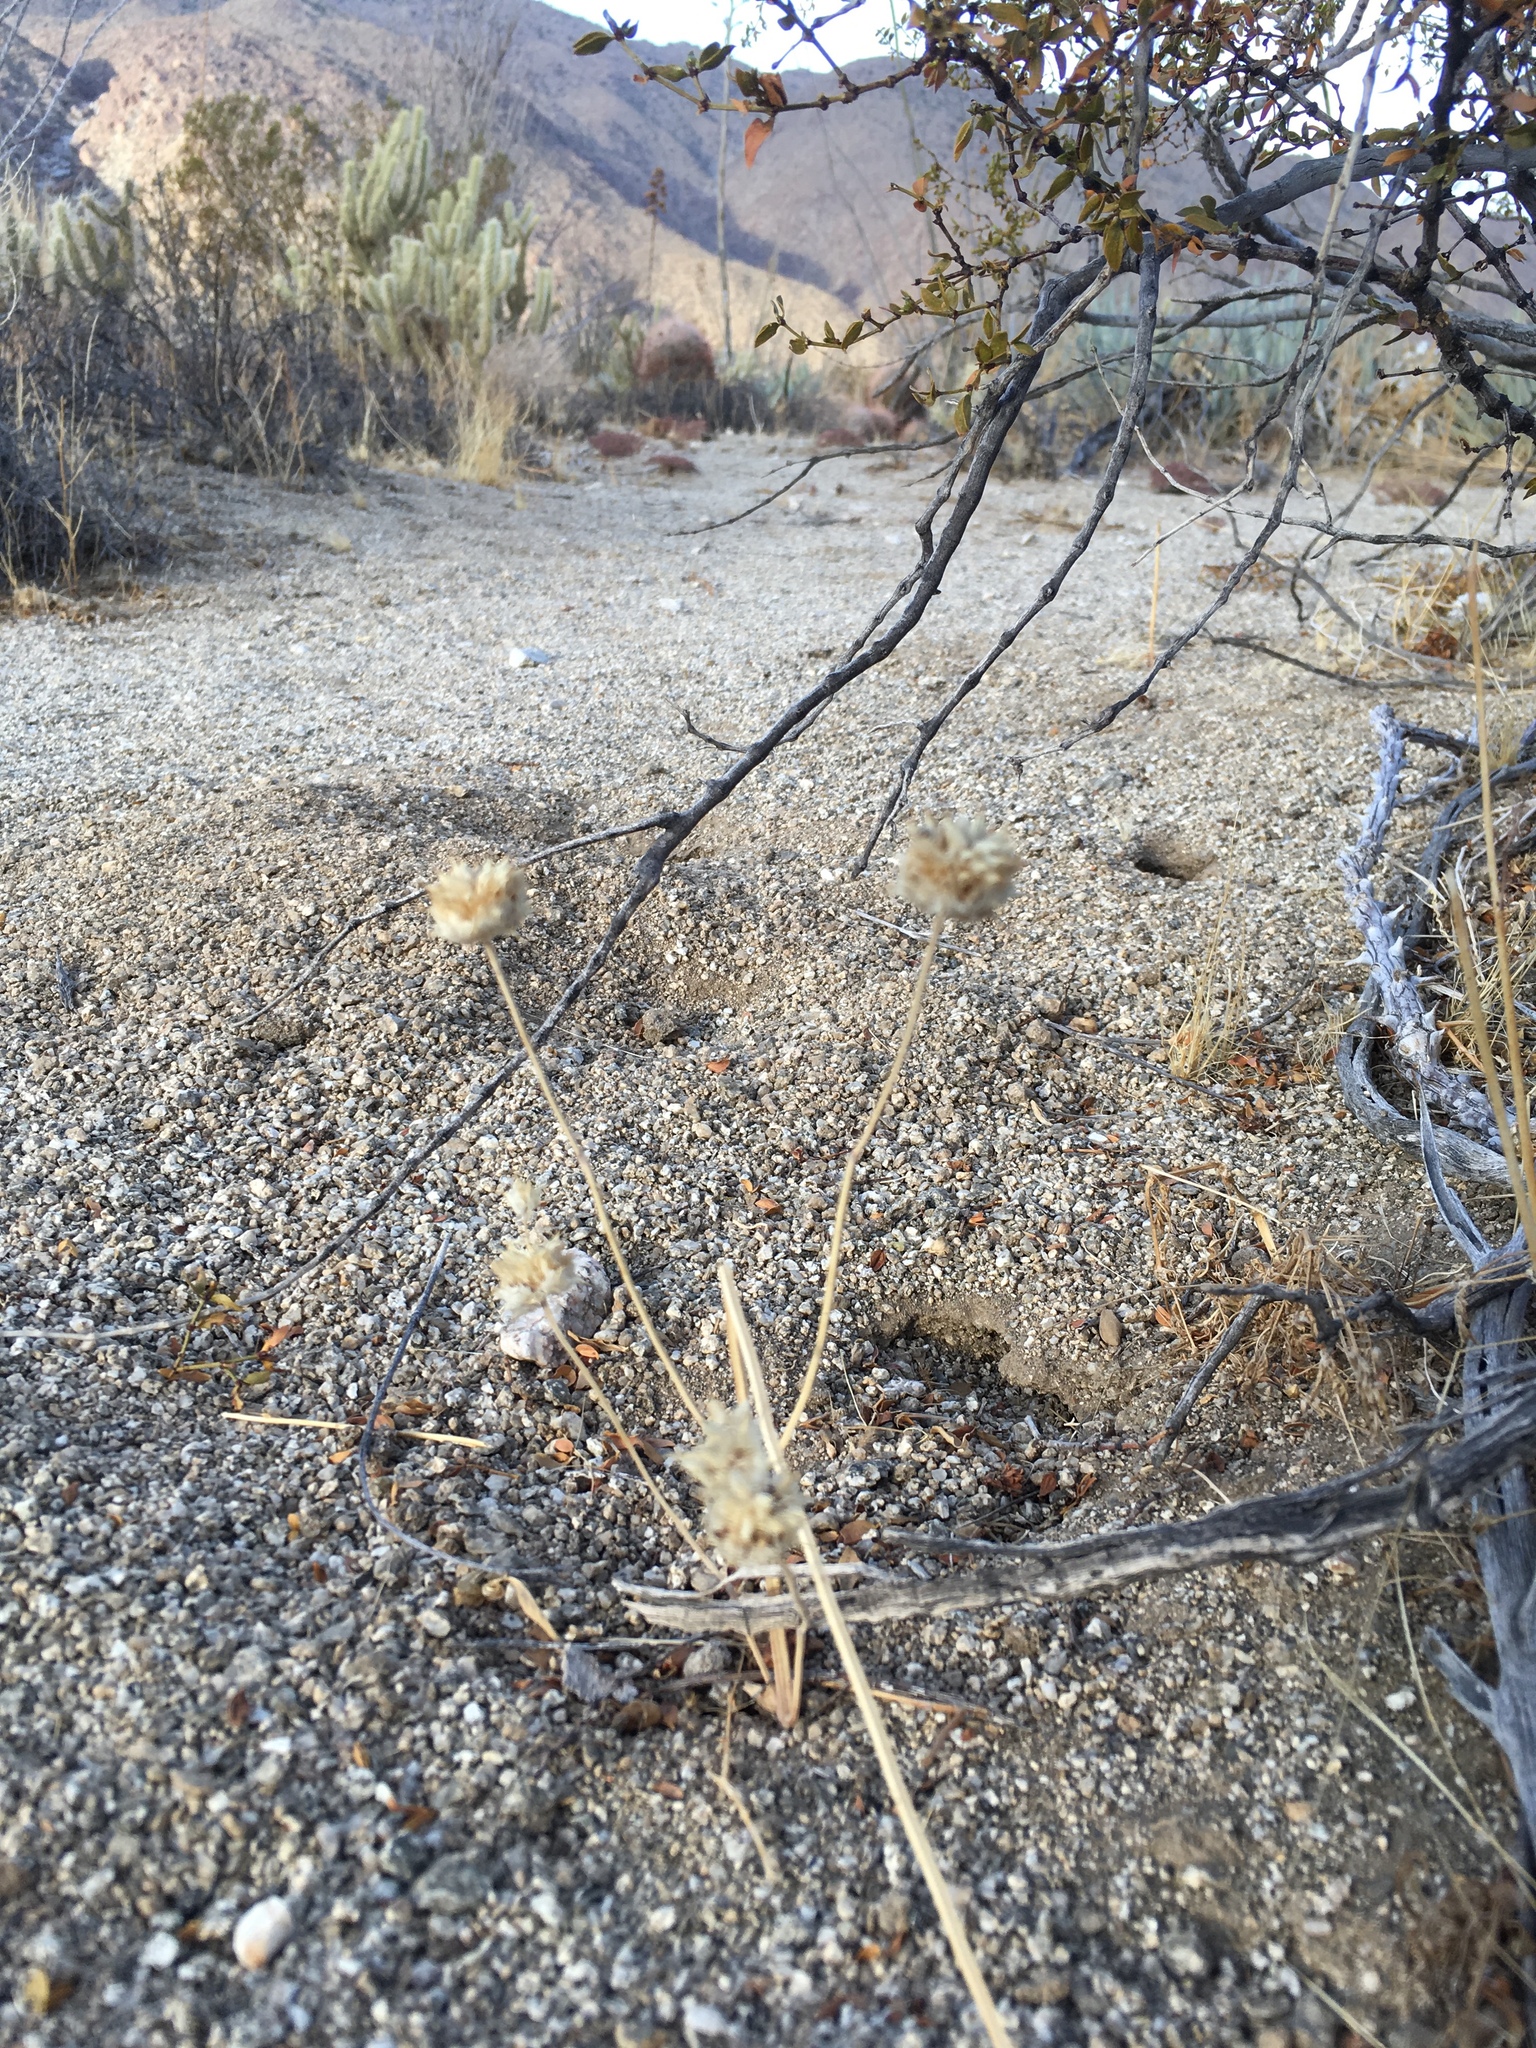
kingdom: Plantae
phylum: Tracheophyta
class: Magnoliopsida
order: Lamiales
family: Lamiaceae
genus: Salvia
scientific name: Salvia columbariae
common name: Chia
